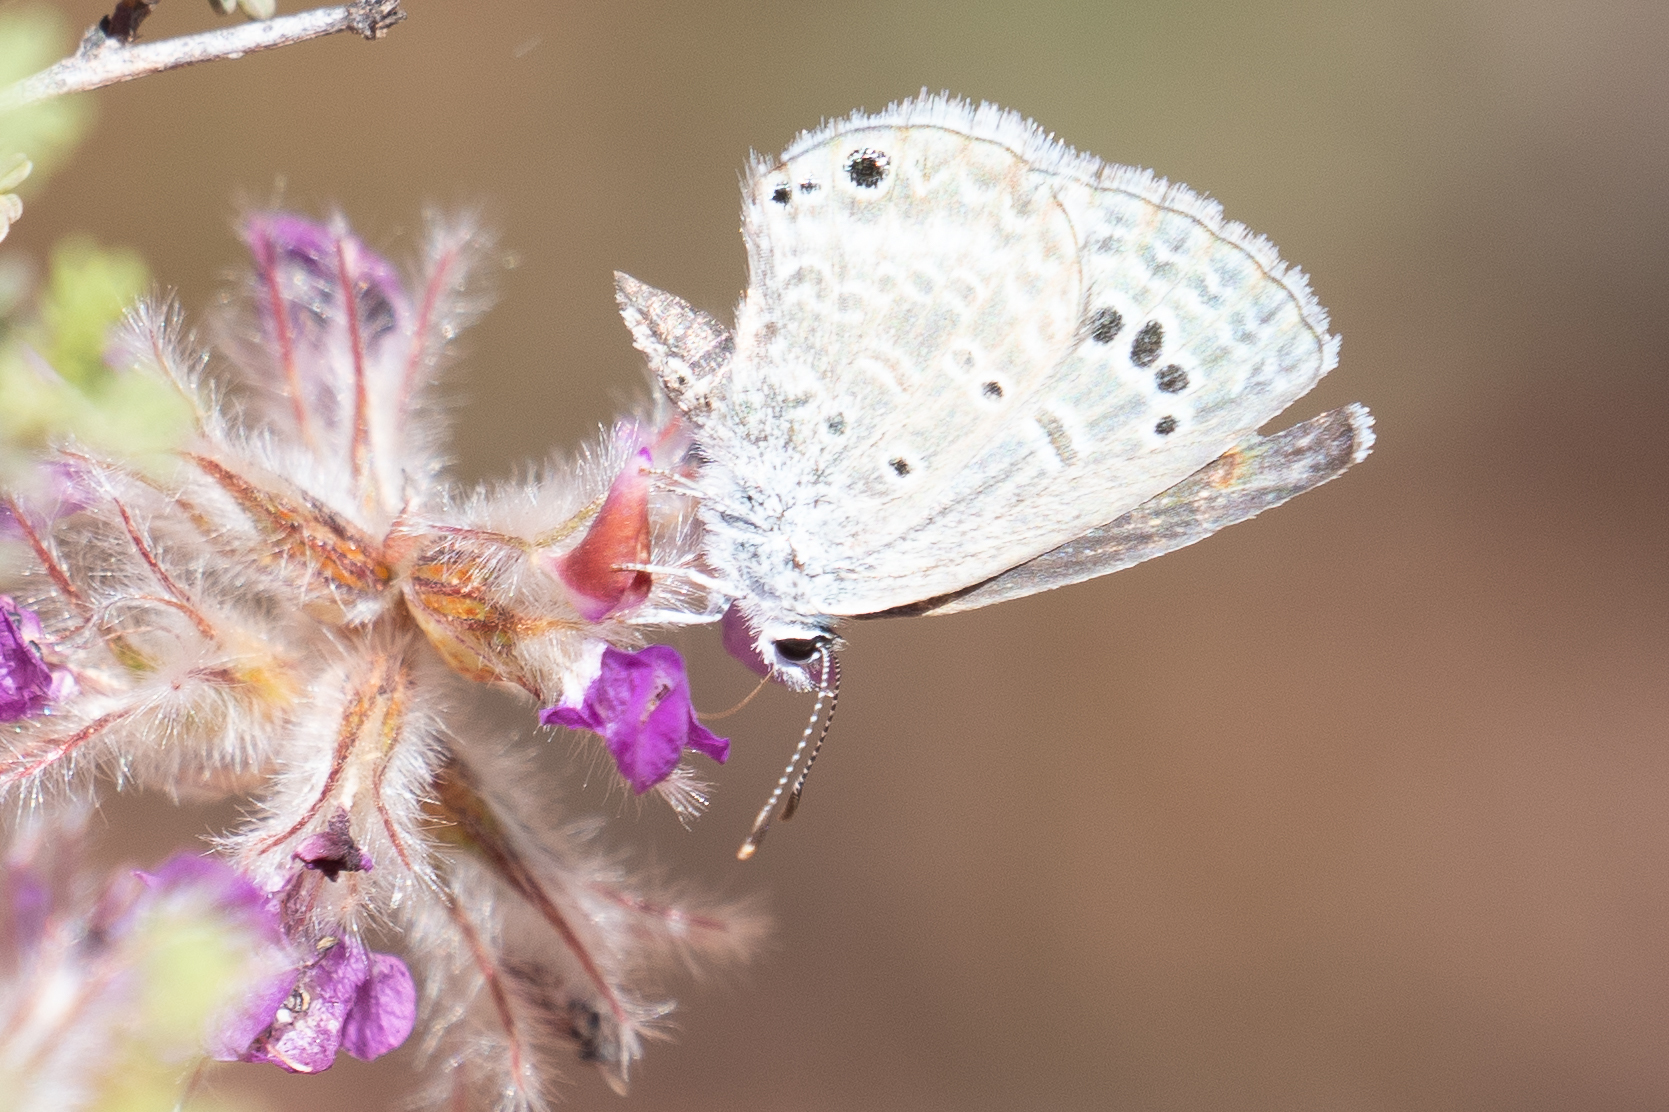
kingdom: Animalia
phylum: Arthropoda
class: Insecta
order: Lepidoptera
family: Lycaenidae
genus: Echinargus
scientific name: Echinargus isola
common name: Reakirt's blue
